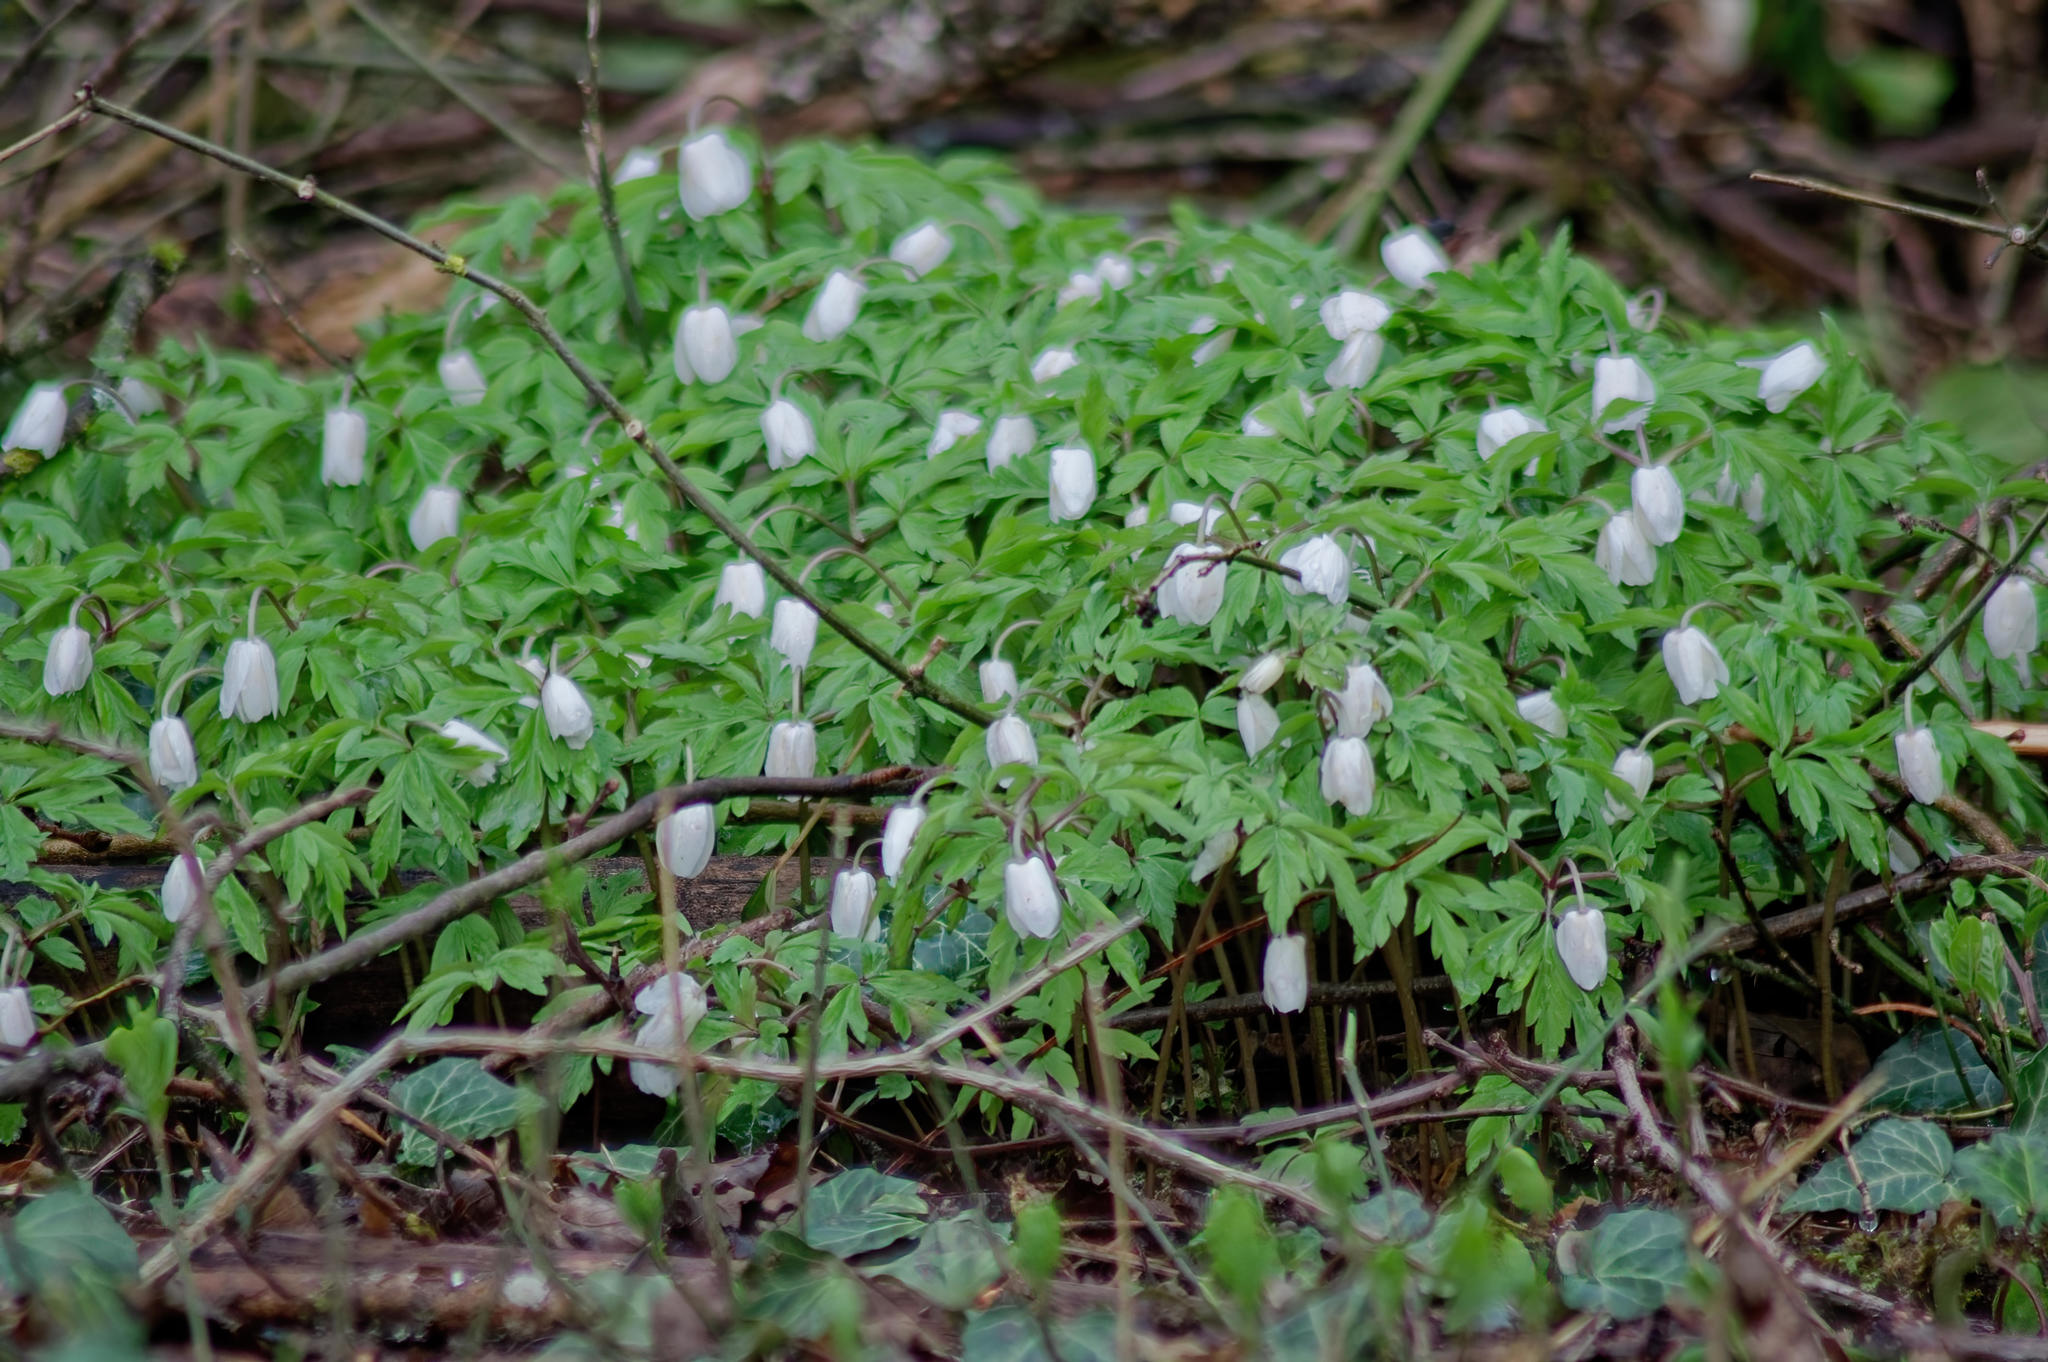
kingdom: Plantae
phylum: Tracheophyta
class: Magnoliopsida
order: Ranunculales
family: Ranunculaceae
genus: Anemone
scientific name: Anemone nemorosa
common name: Wood anemone
